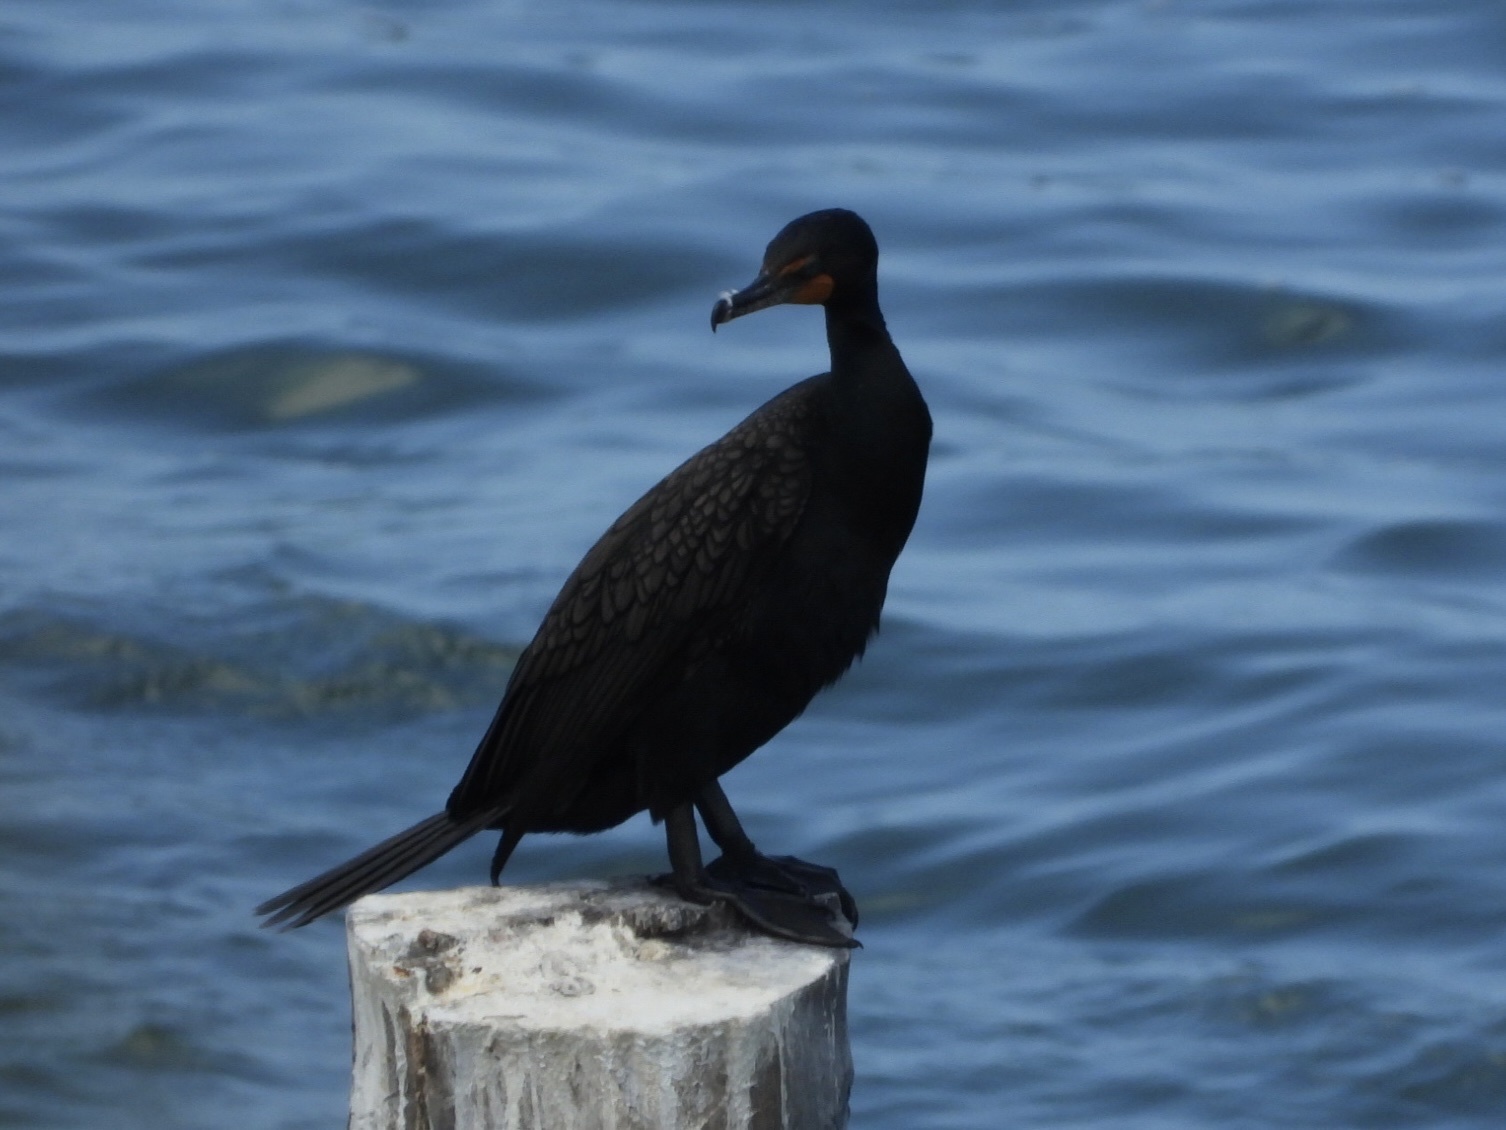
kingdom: Animalia
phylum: Chordata
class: Aves
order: Suliformes
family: Phalacrocoracidae
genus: Phalacrocorax
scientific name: Phalacrocorax auritus
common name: Double-crested cormorant
